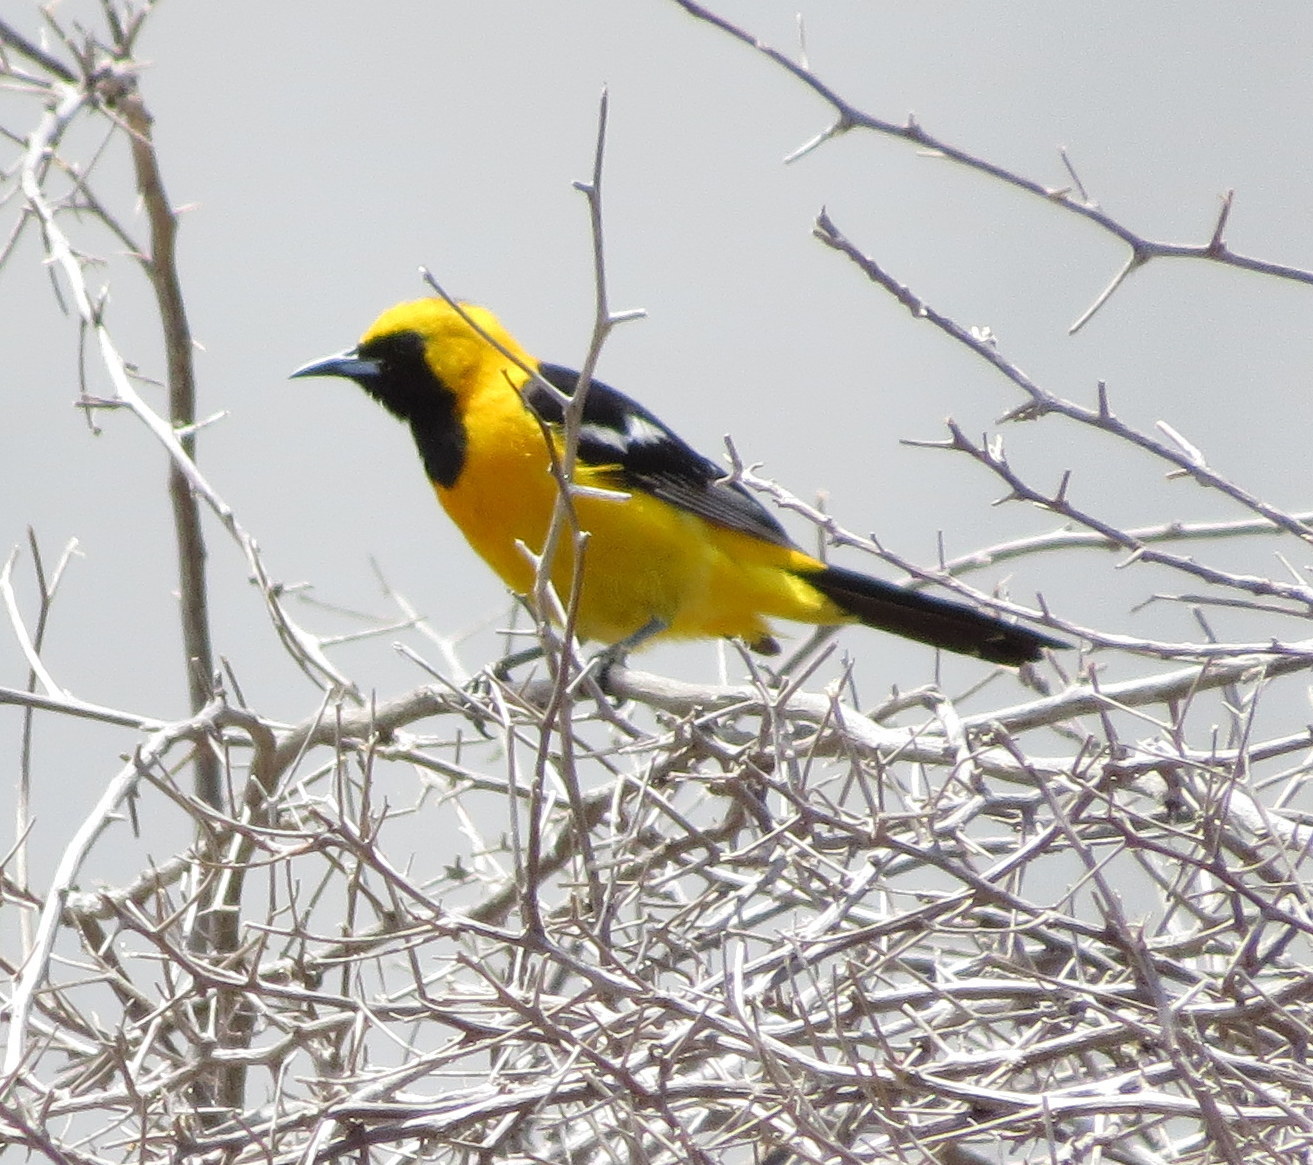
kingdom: Animalia
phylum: Chordata
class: Aves
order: Passeriformes
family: Icteridae
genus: Icterus
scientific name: Icterus cucullatus
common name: Hooded oriole
